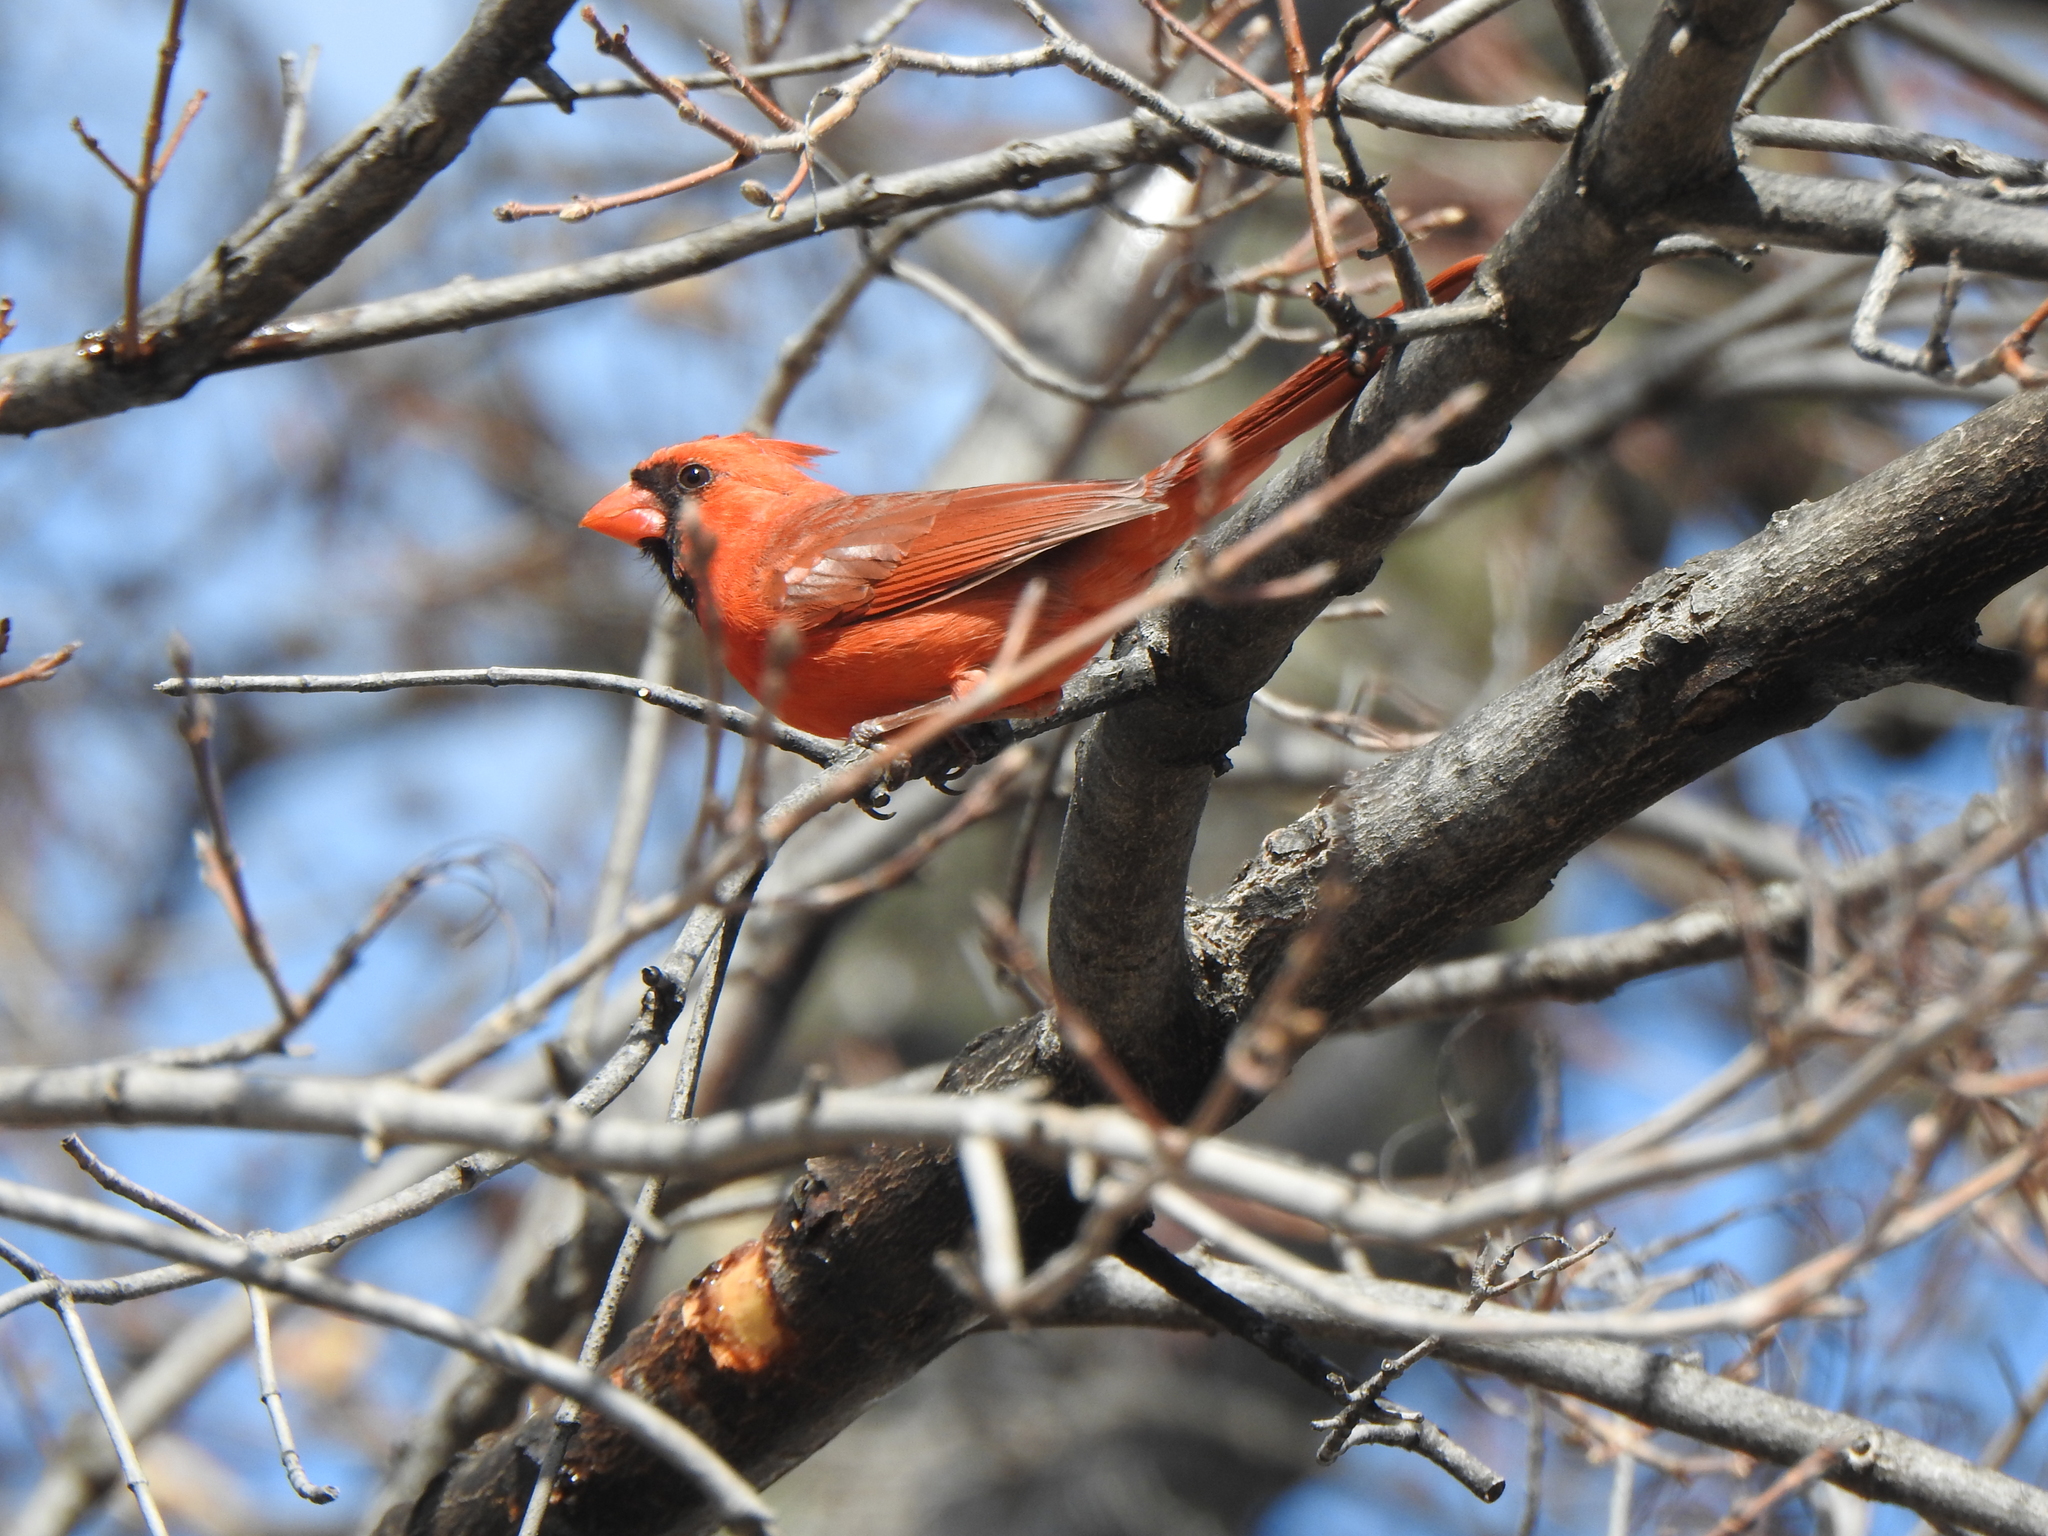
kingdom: Animalia
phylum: Chordata
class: Aves
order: Passeriformes
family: Cardinalidae
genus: Cardinalis
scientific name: Cardinalis cardinalis
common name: Northern cardinal
